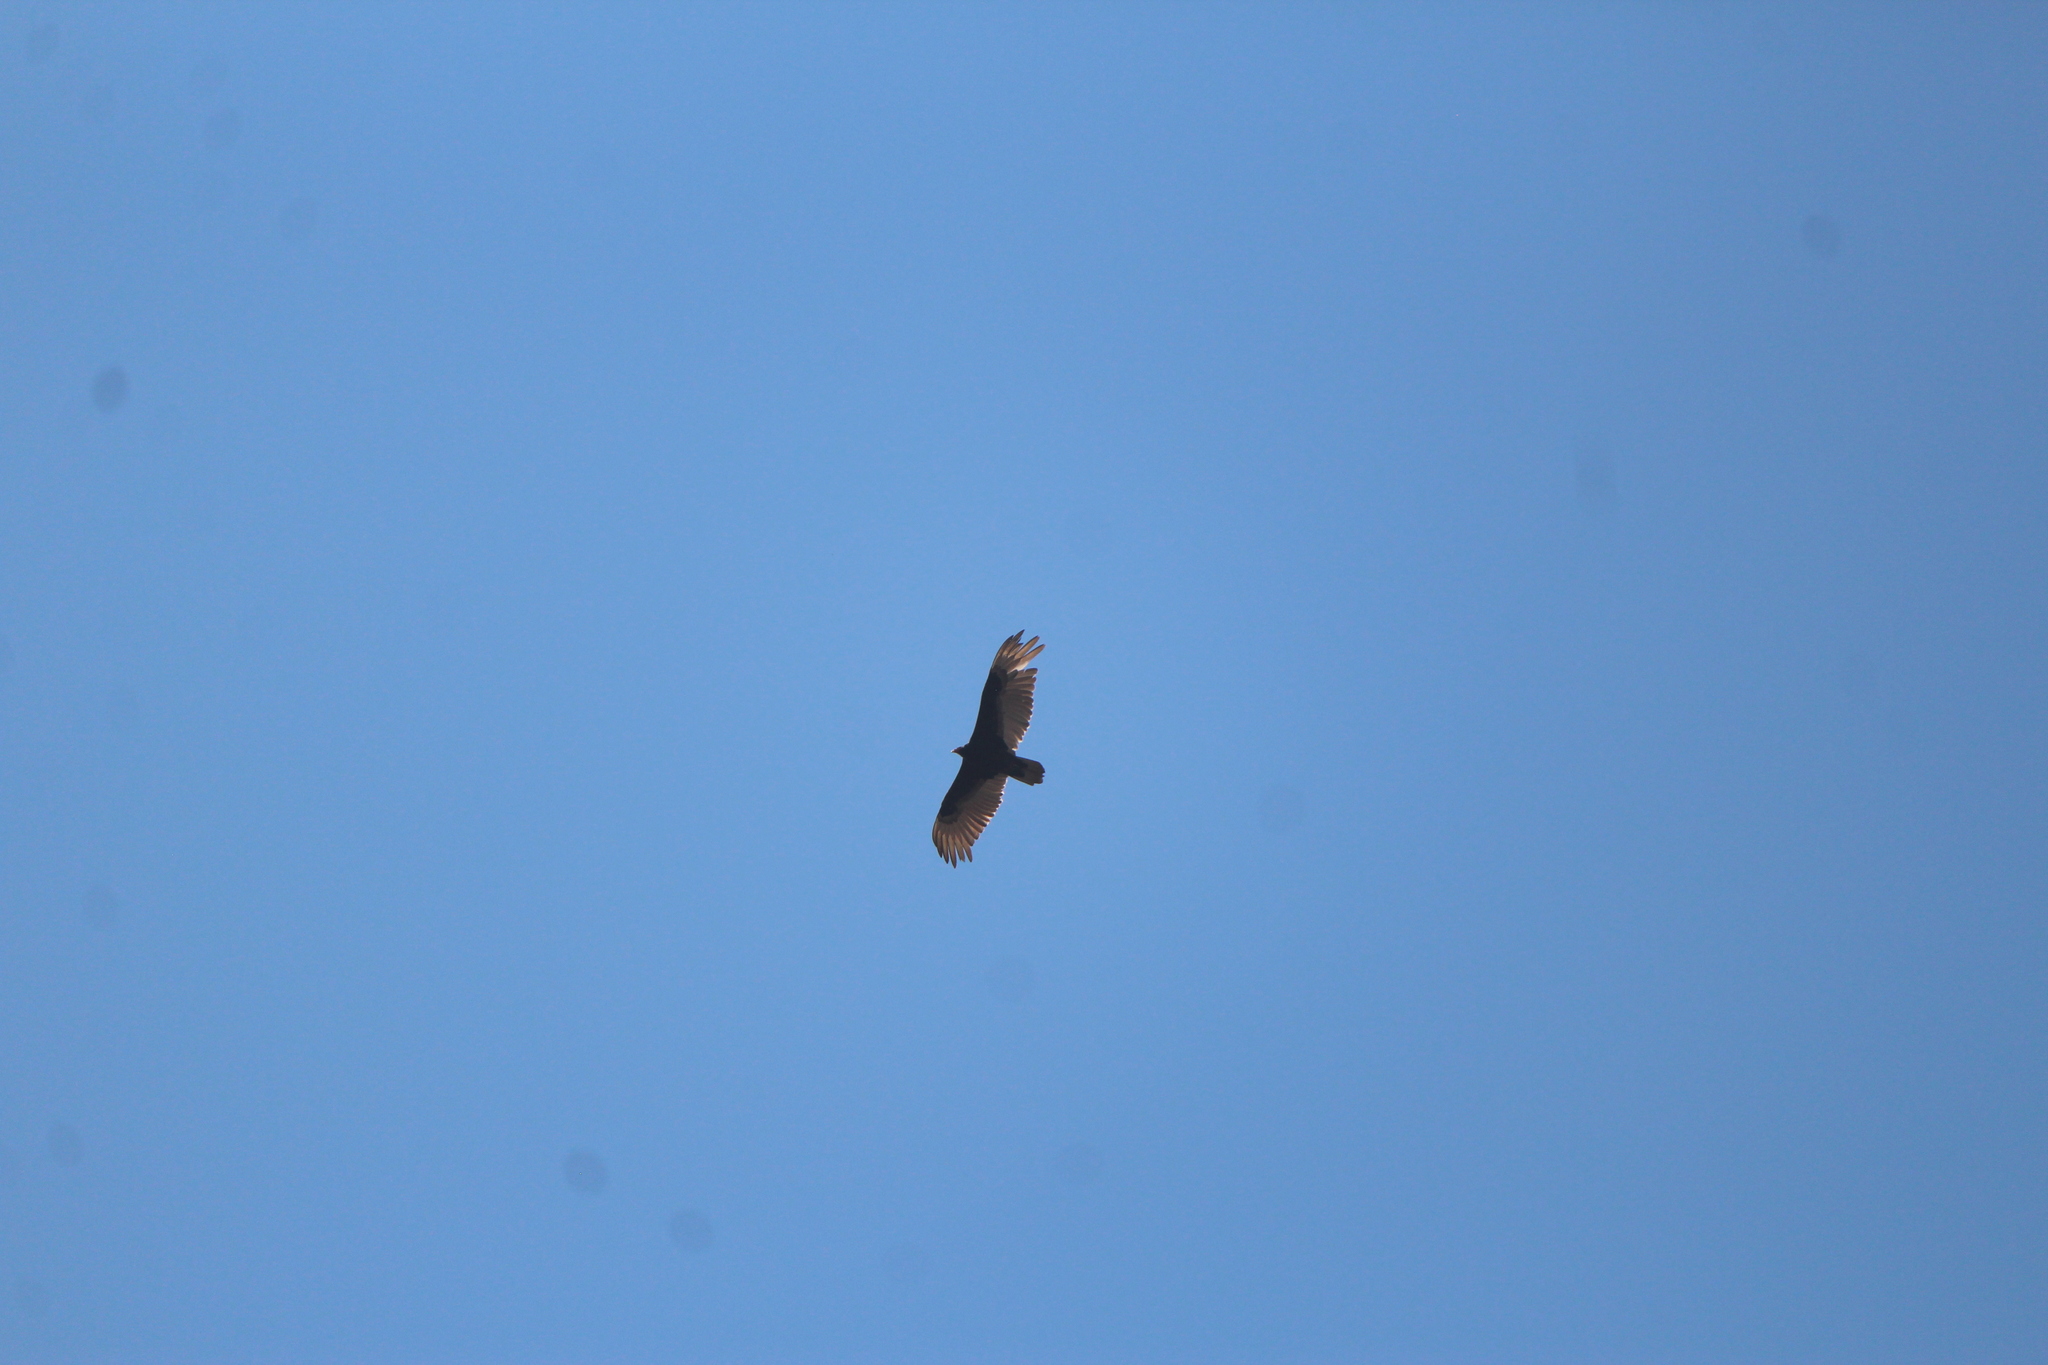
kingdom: Animalia
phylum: Chordata
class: Aves
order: Accipitriformes
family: Cathartidae
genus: Cathartes
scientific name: Cathartes aura
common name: Turkey vulture
